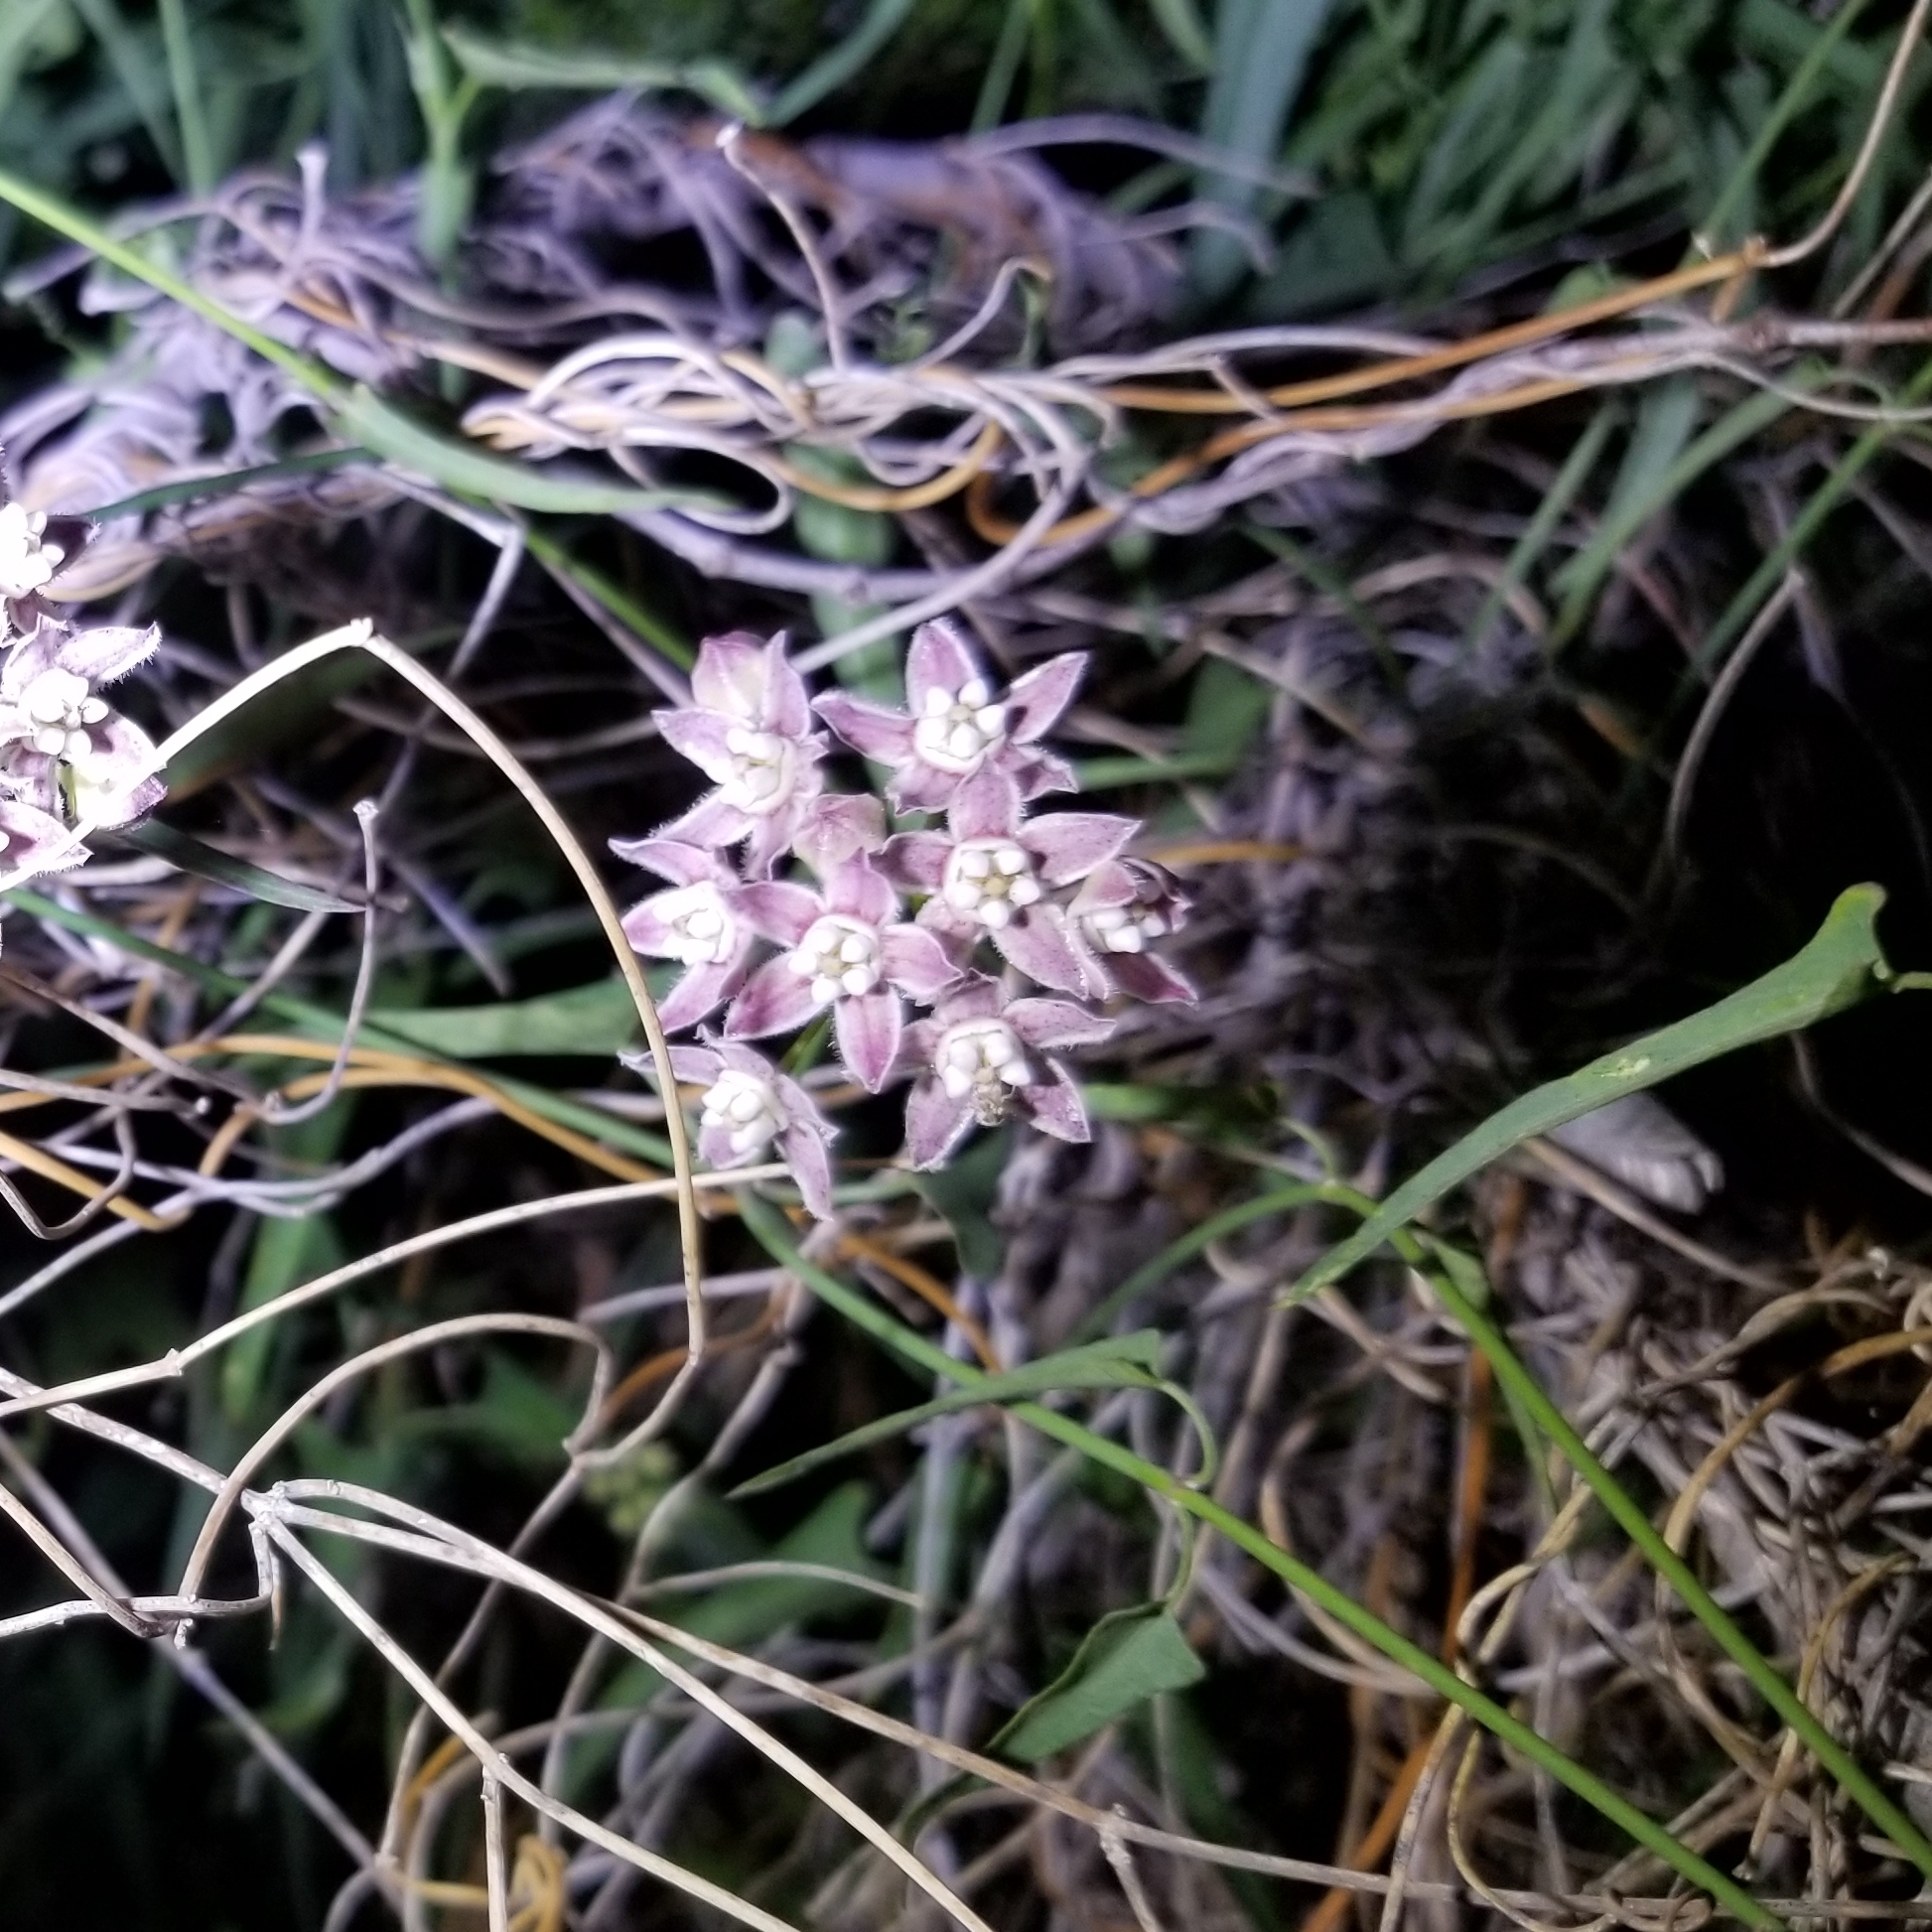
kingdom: Plantae
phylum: Tracheophyta
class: Magnoliopsida
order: Gentianales
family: Apocynaceae
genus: Funastrum
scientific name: Funastrum heterophyllum
